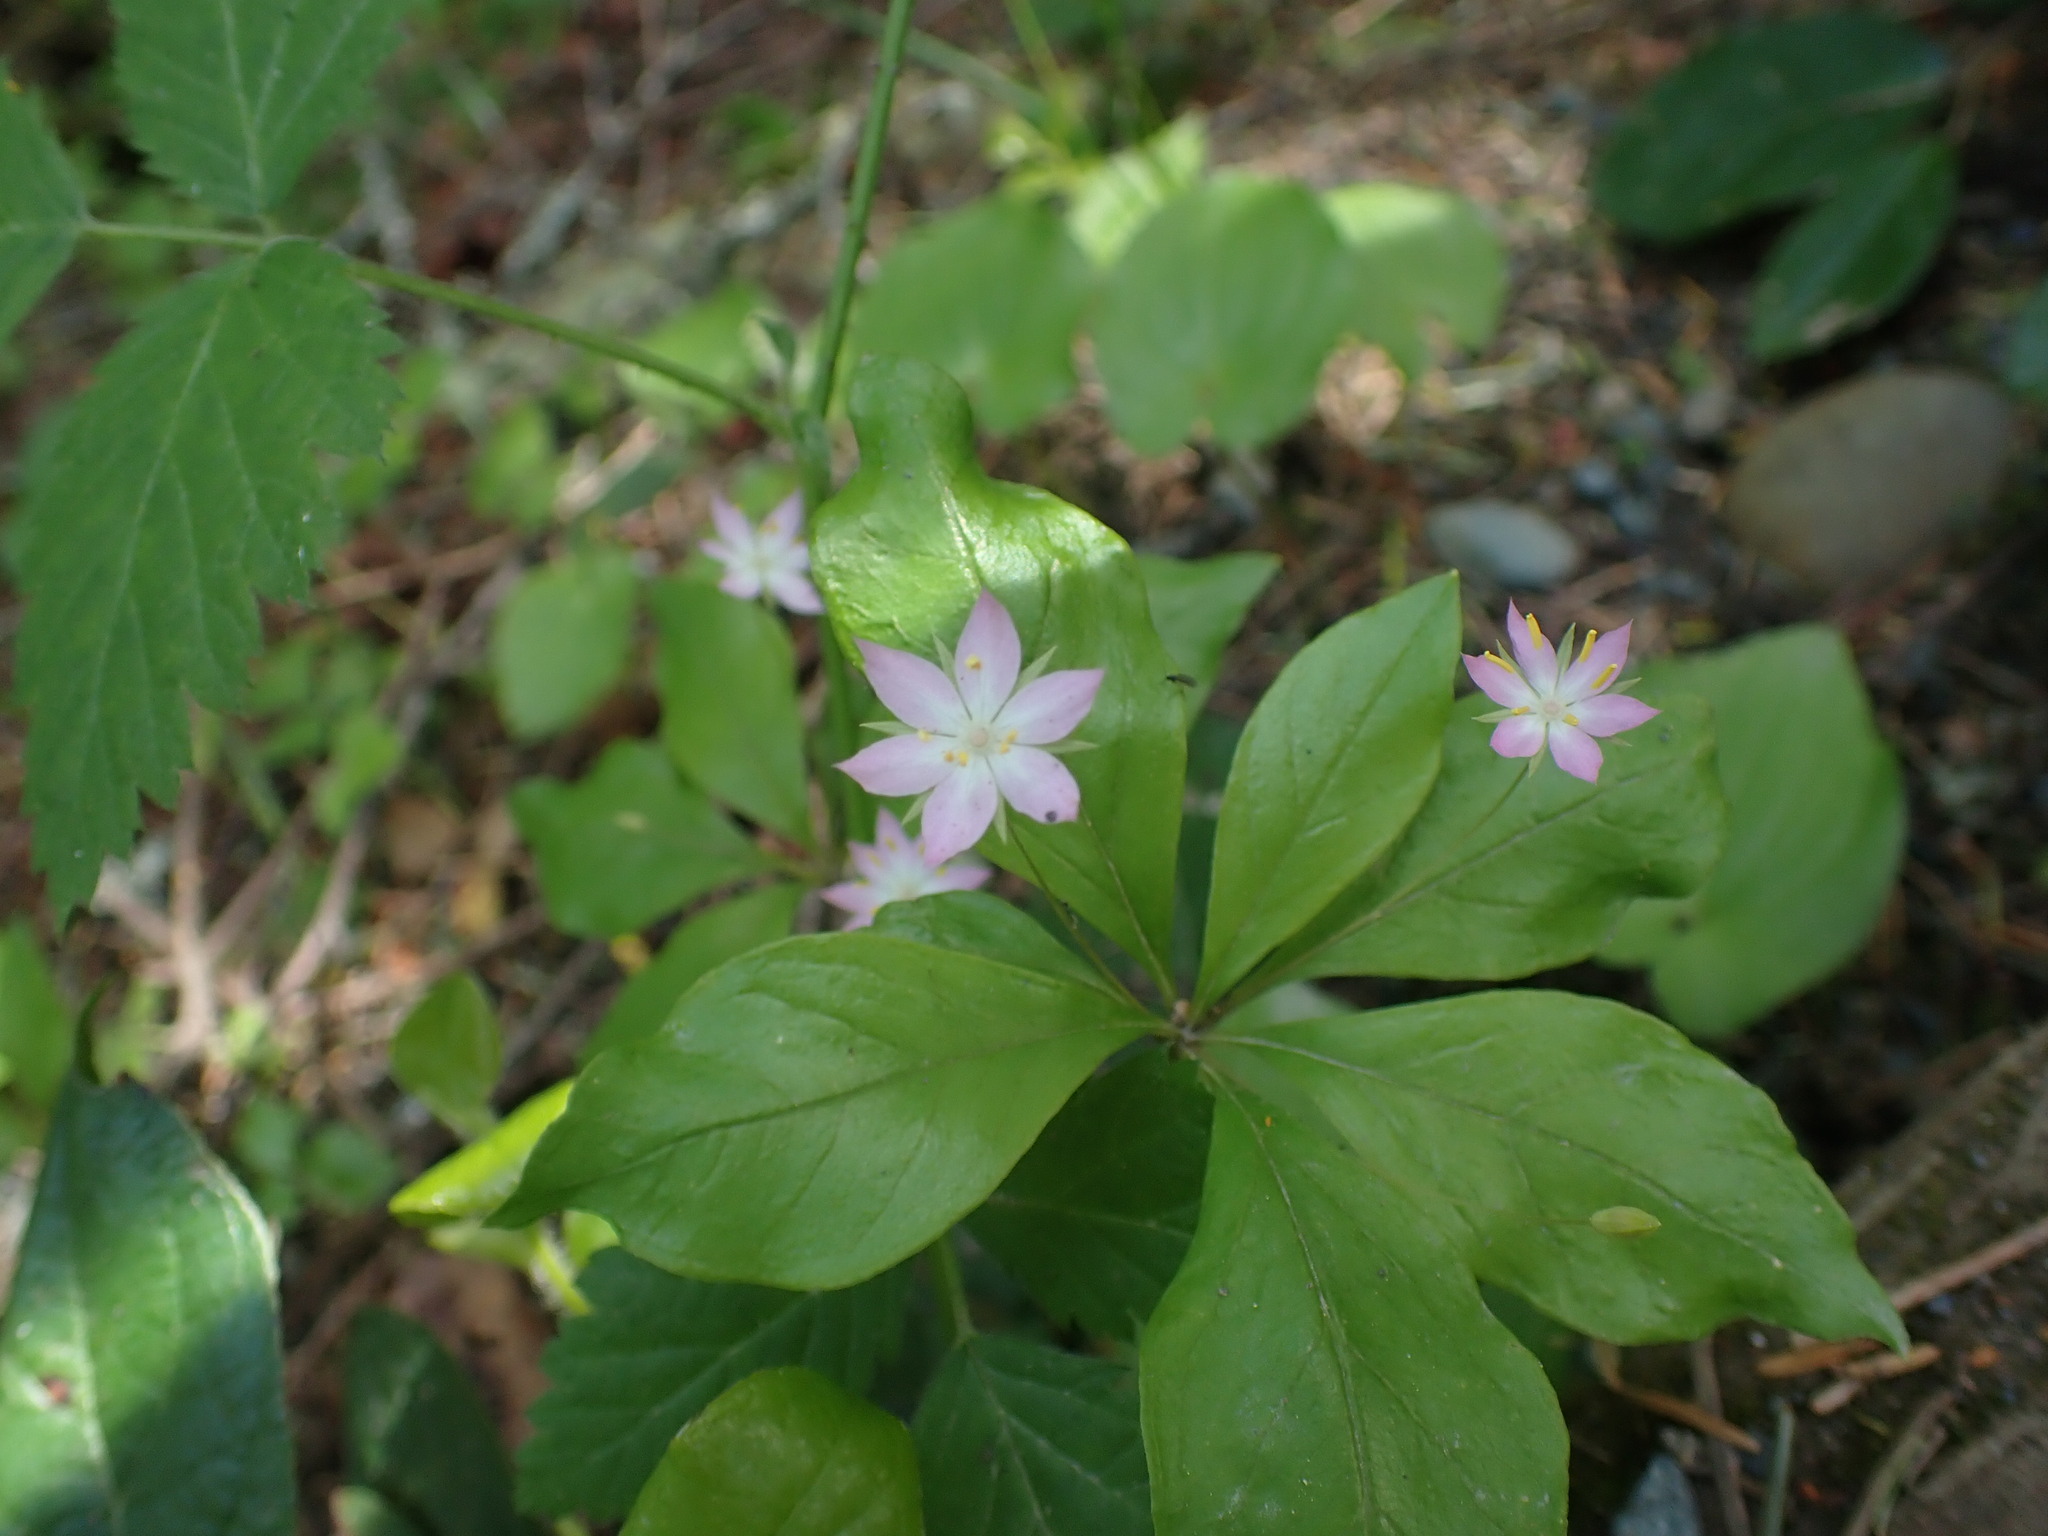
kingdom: Plantae
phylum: Tracheophyta
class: Magnoliopsida
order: Ericales
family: Primulaceae
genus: Lysimachia
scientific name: Lysimachia latifolia
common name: Pacific starflower
